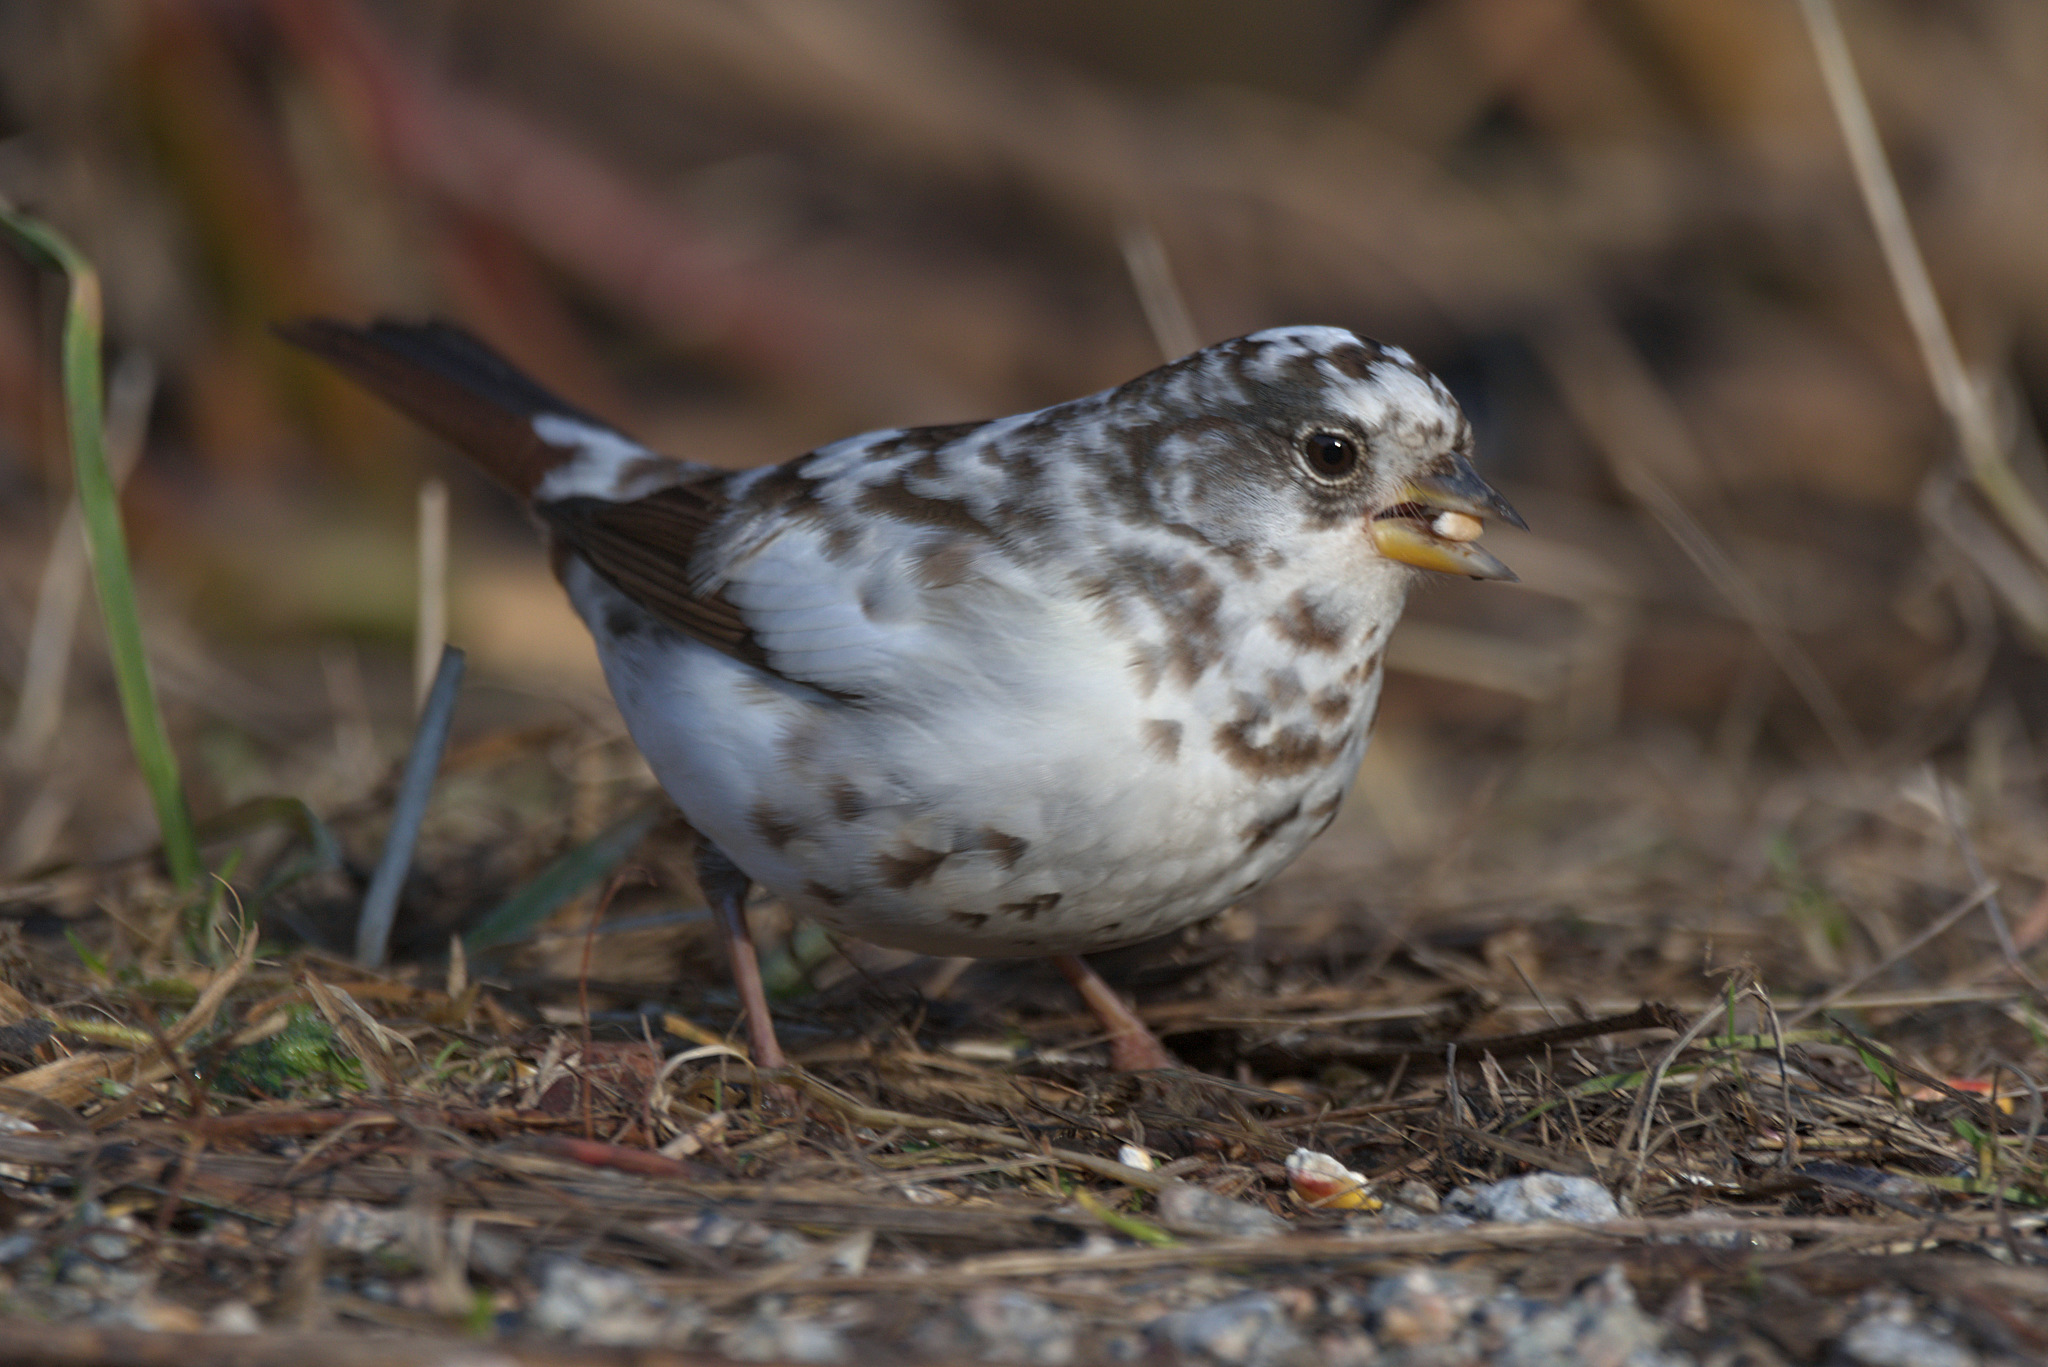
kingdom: Animalia
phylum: Chordata
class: Aves
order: Passeriformes
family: Passerellidae
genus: Passerella
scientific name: Passerella iliaca
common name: Fox sparrow
